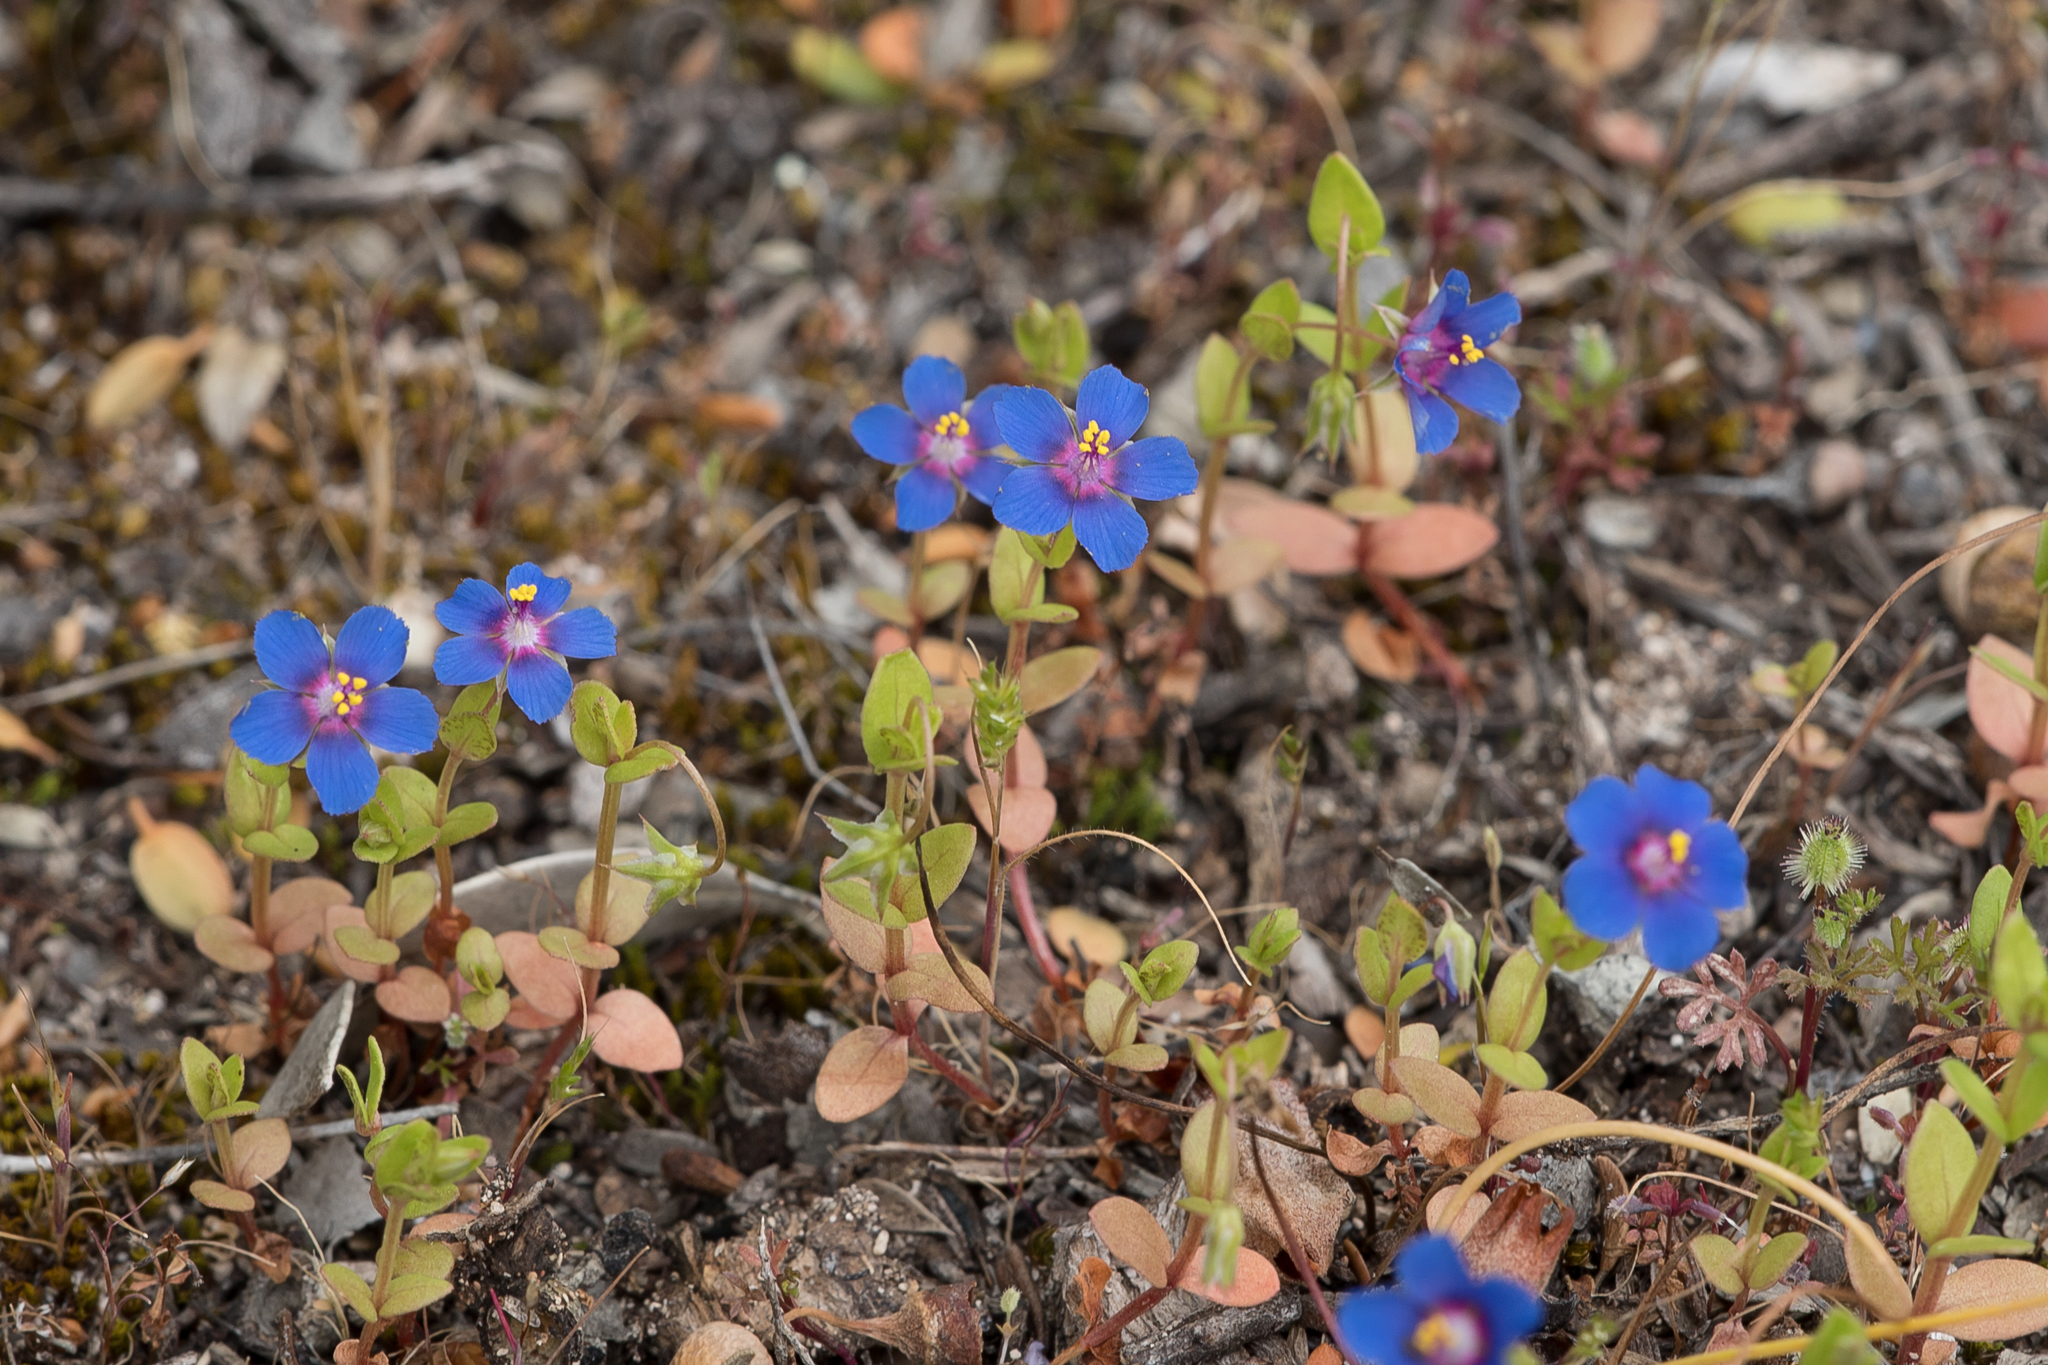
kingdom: Plantae
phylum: Tracheophyta
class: Magnoliopsida
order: Ericales
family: Primulaceae
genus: Lysimachia
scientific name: Lysimachia loeflingii
